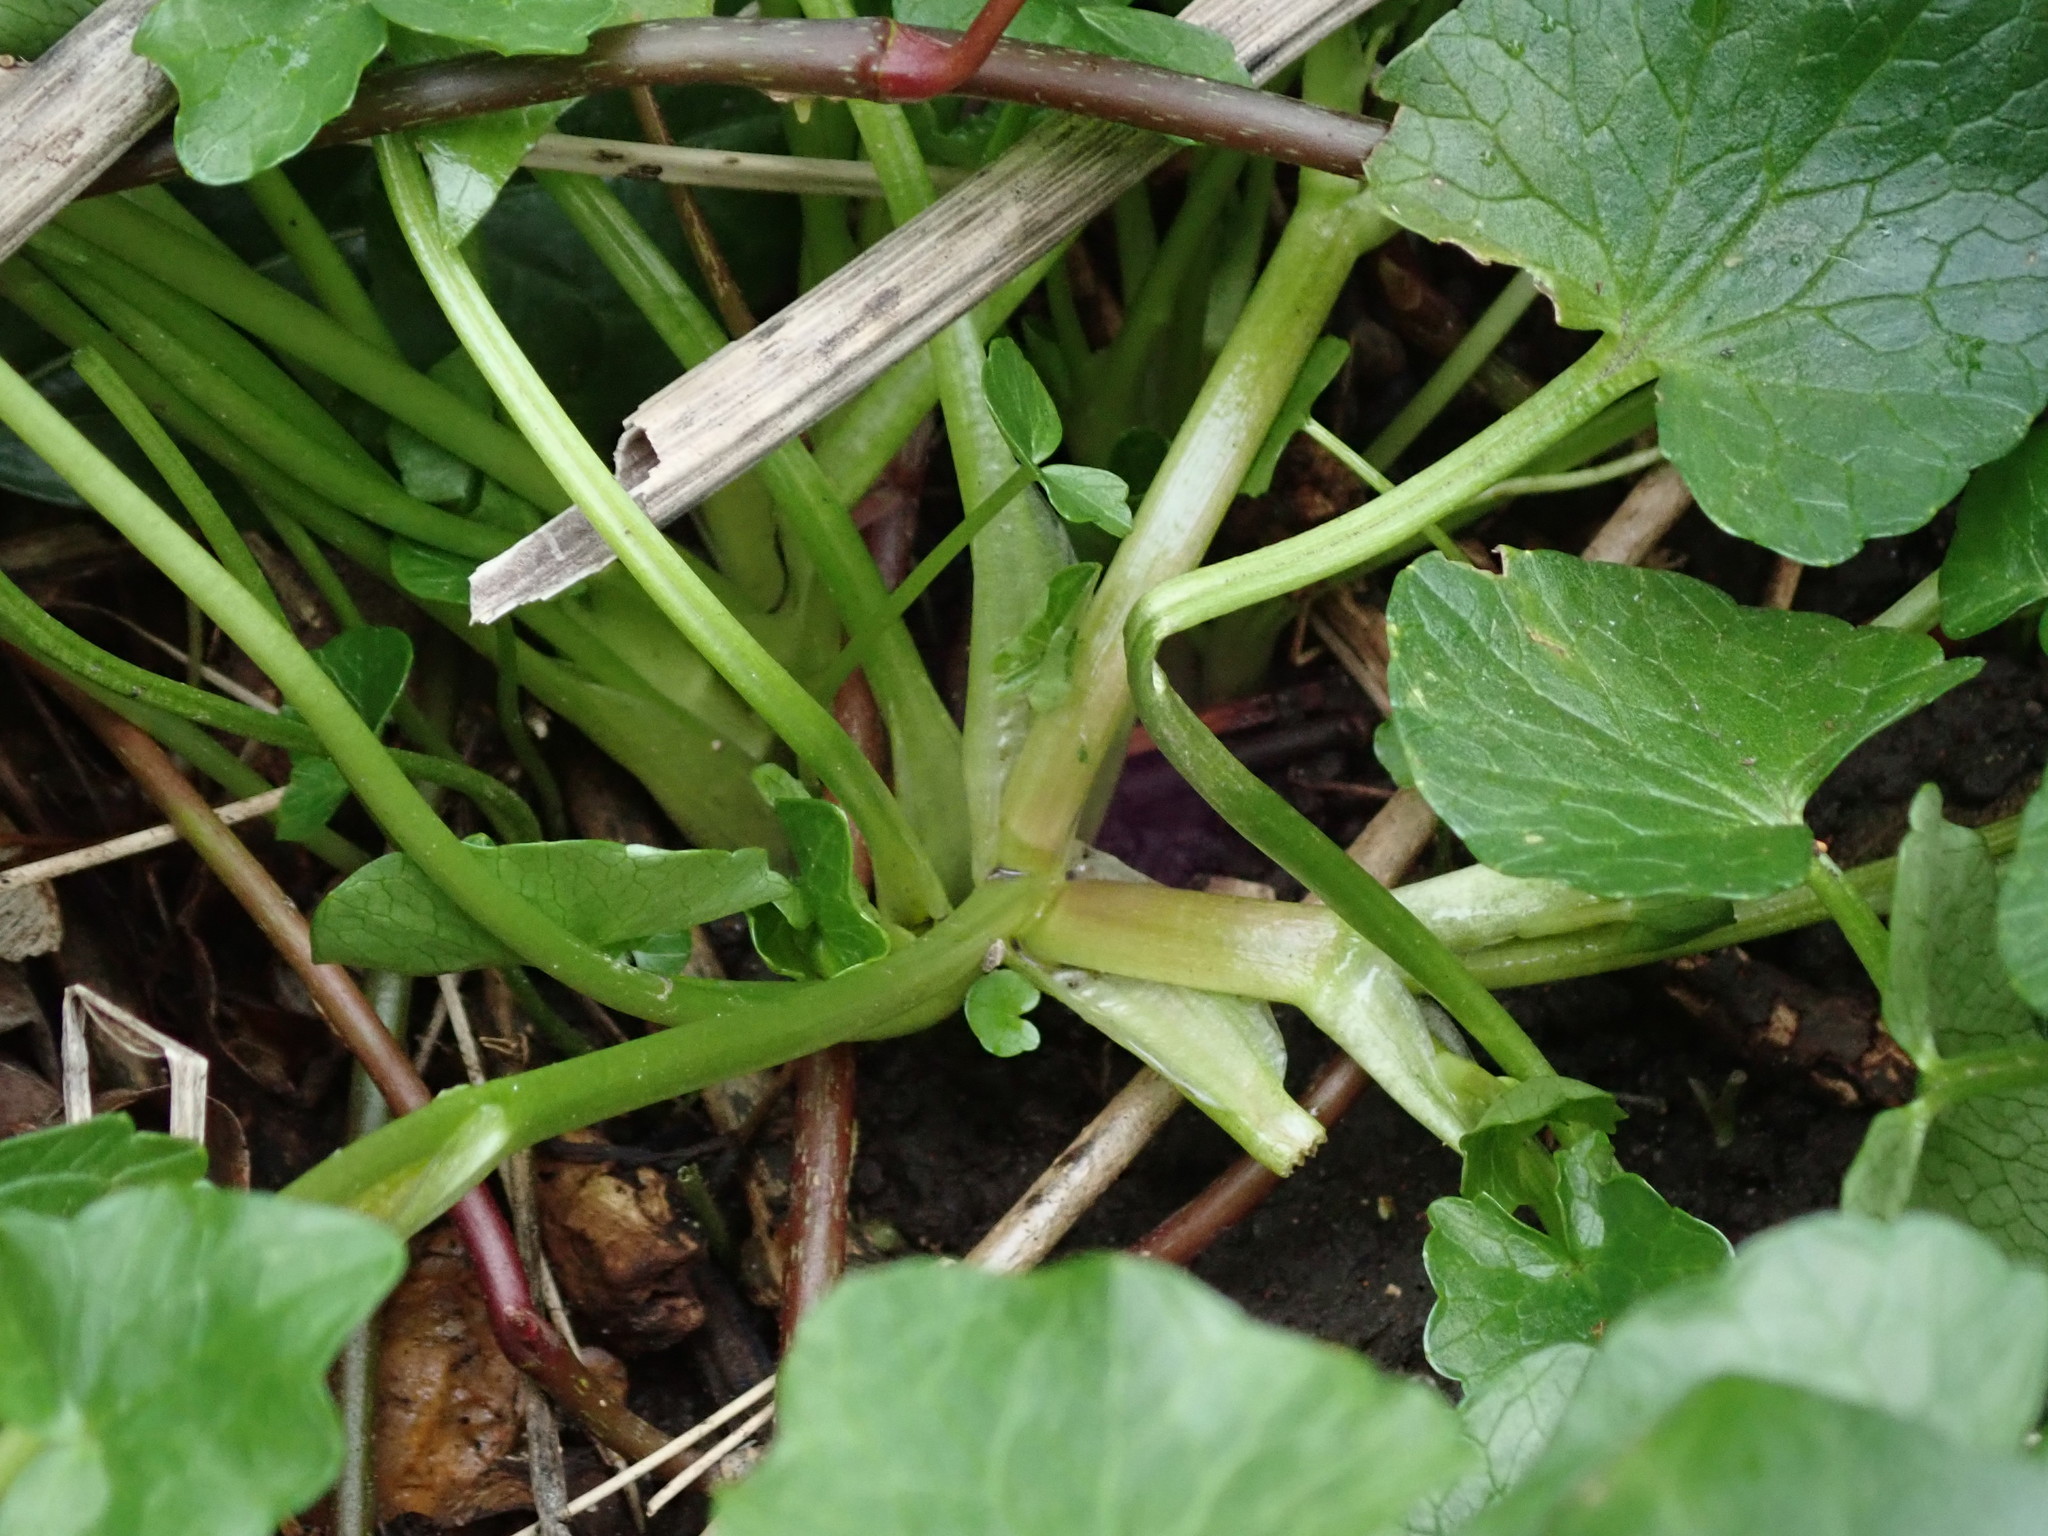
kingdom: Plantae
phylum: Tracheophyta
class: Magnoliopsida
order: Ranunculales
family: Ranunculaceae
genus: Ficaria
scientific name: Ficaria ambigua
